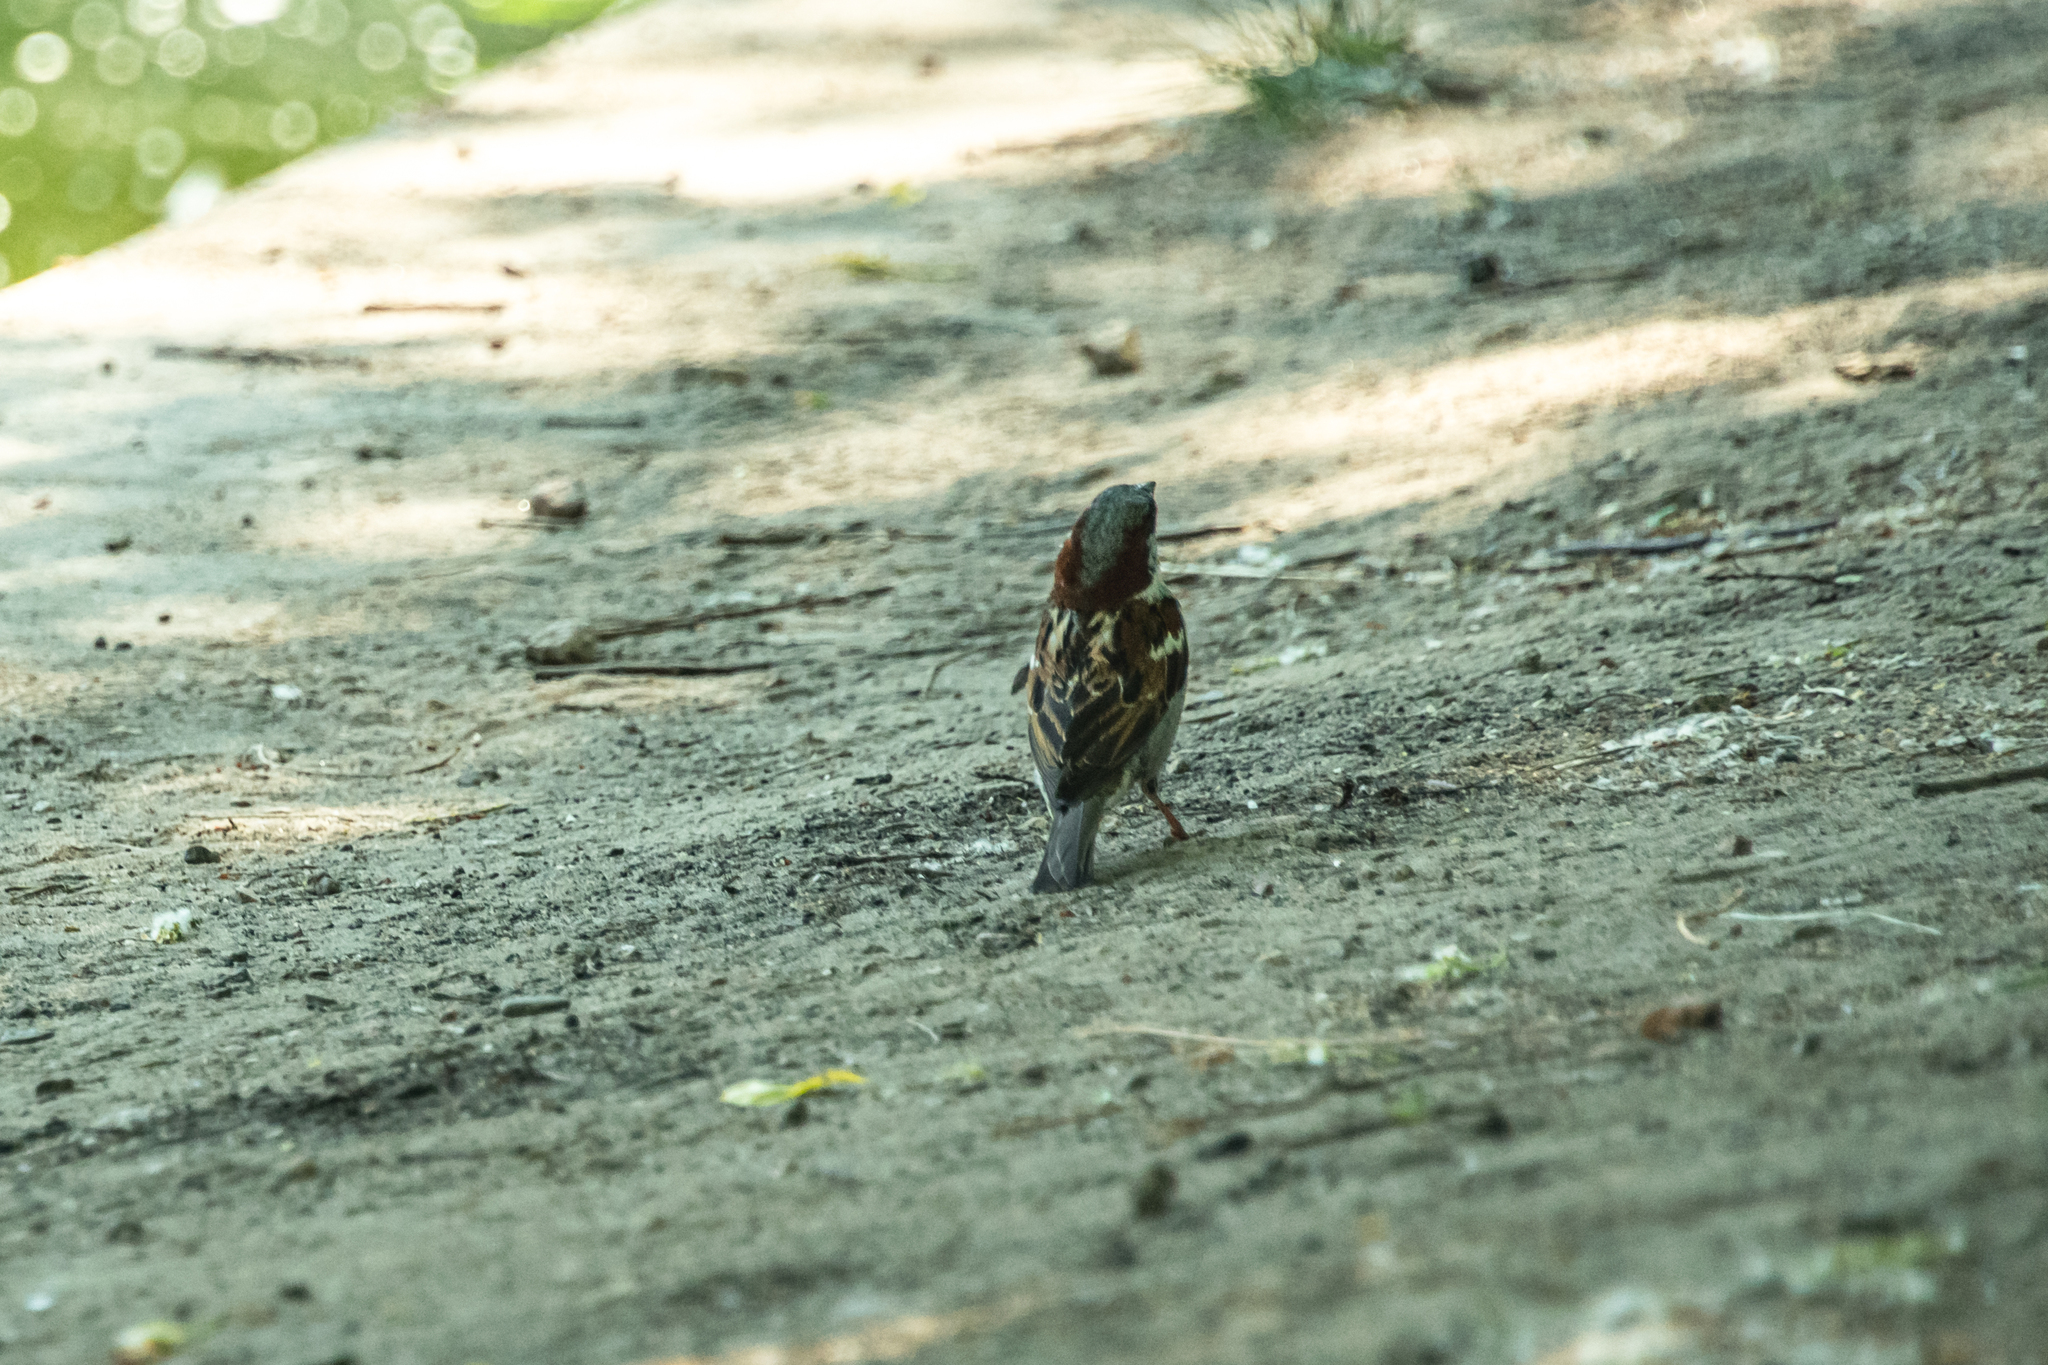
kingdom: Animalia
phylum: Chordata
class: Aves
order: Passeriformes
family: Passeridae
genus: Passer
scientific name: Passer domesticus
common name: House sparrow
